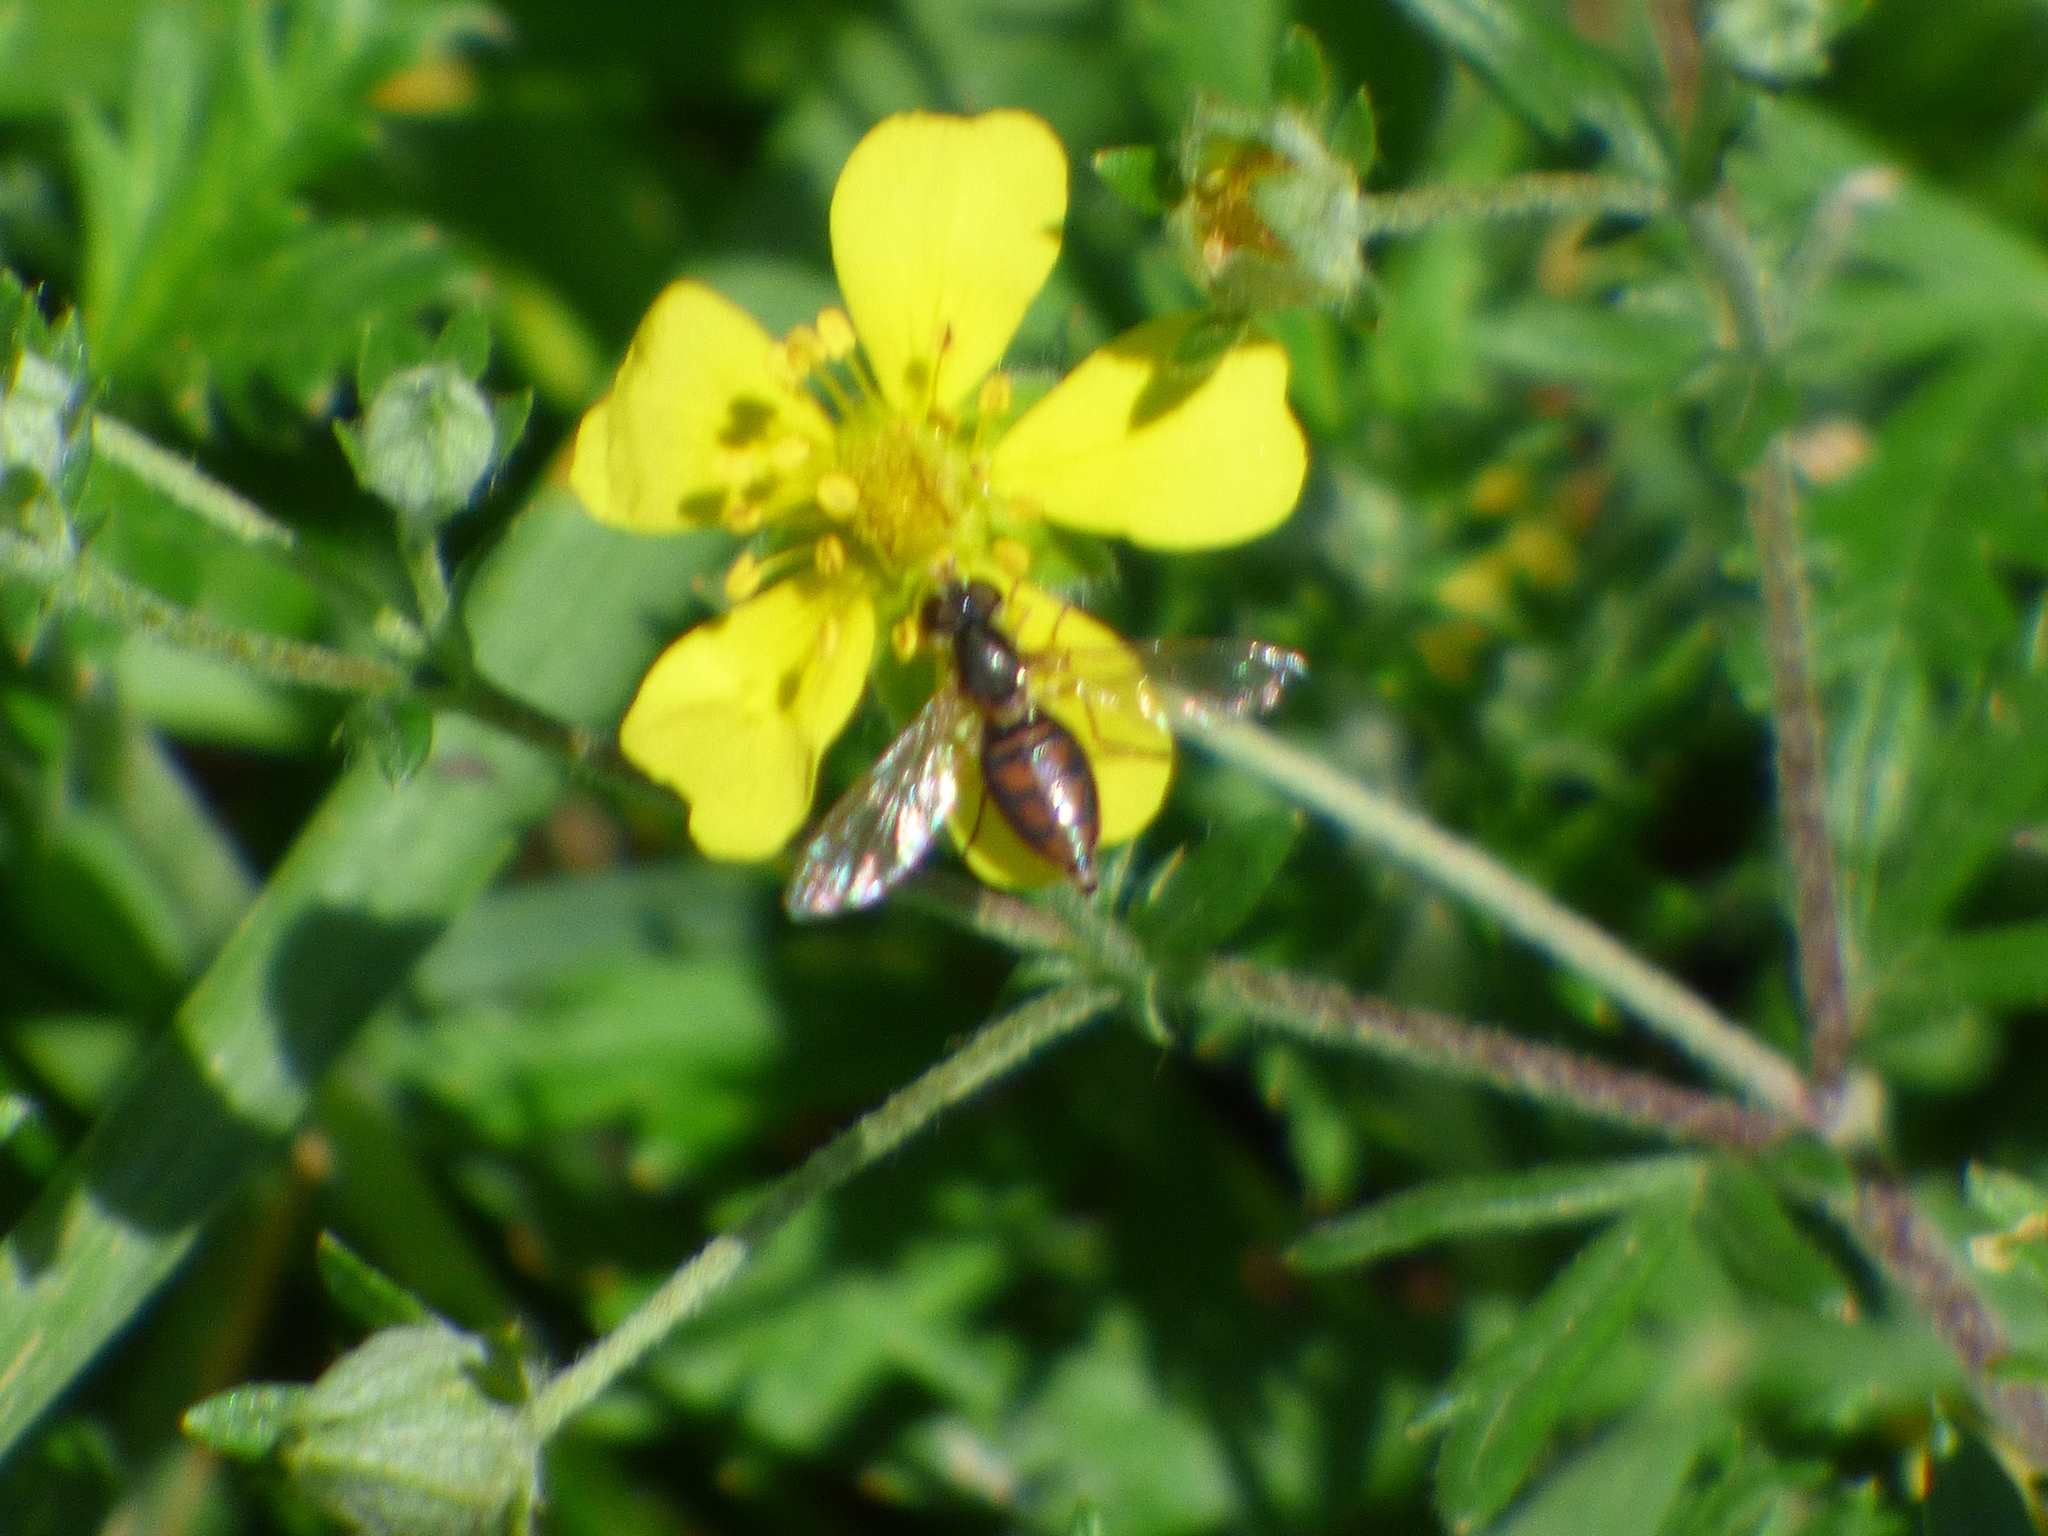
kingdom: Animalia
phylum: Arthropoda
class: Insecta
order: Diptera
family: Syrphidae
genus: Toxomerus
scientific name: Toxomerus marginatus
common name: Syrphid fly
